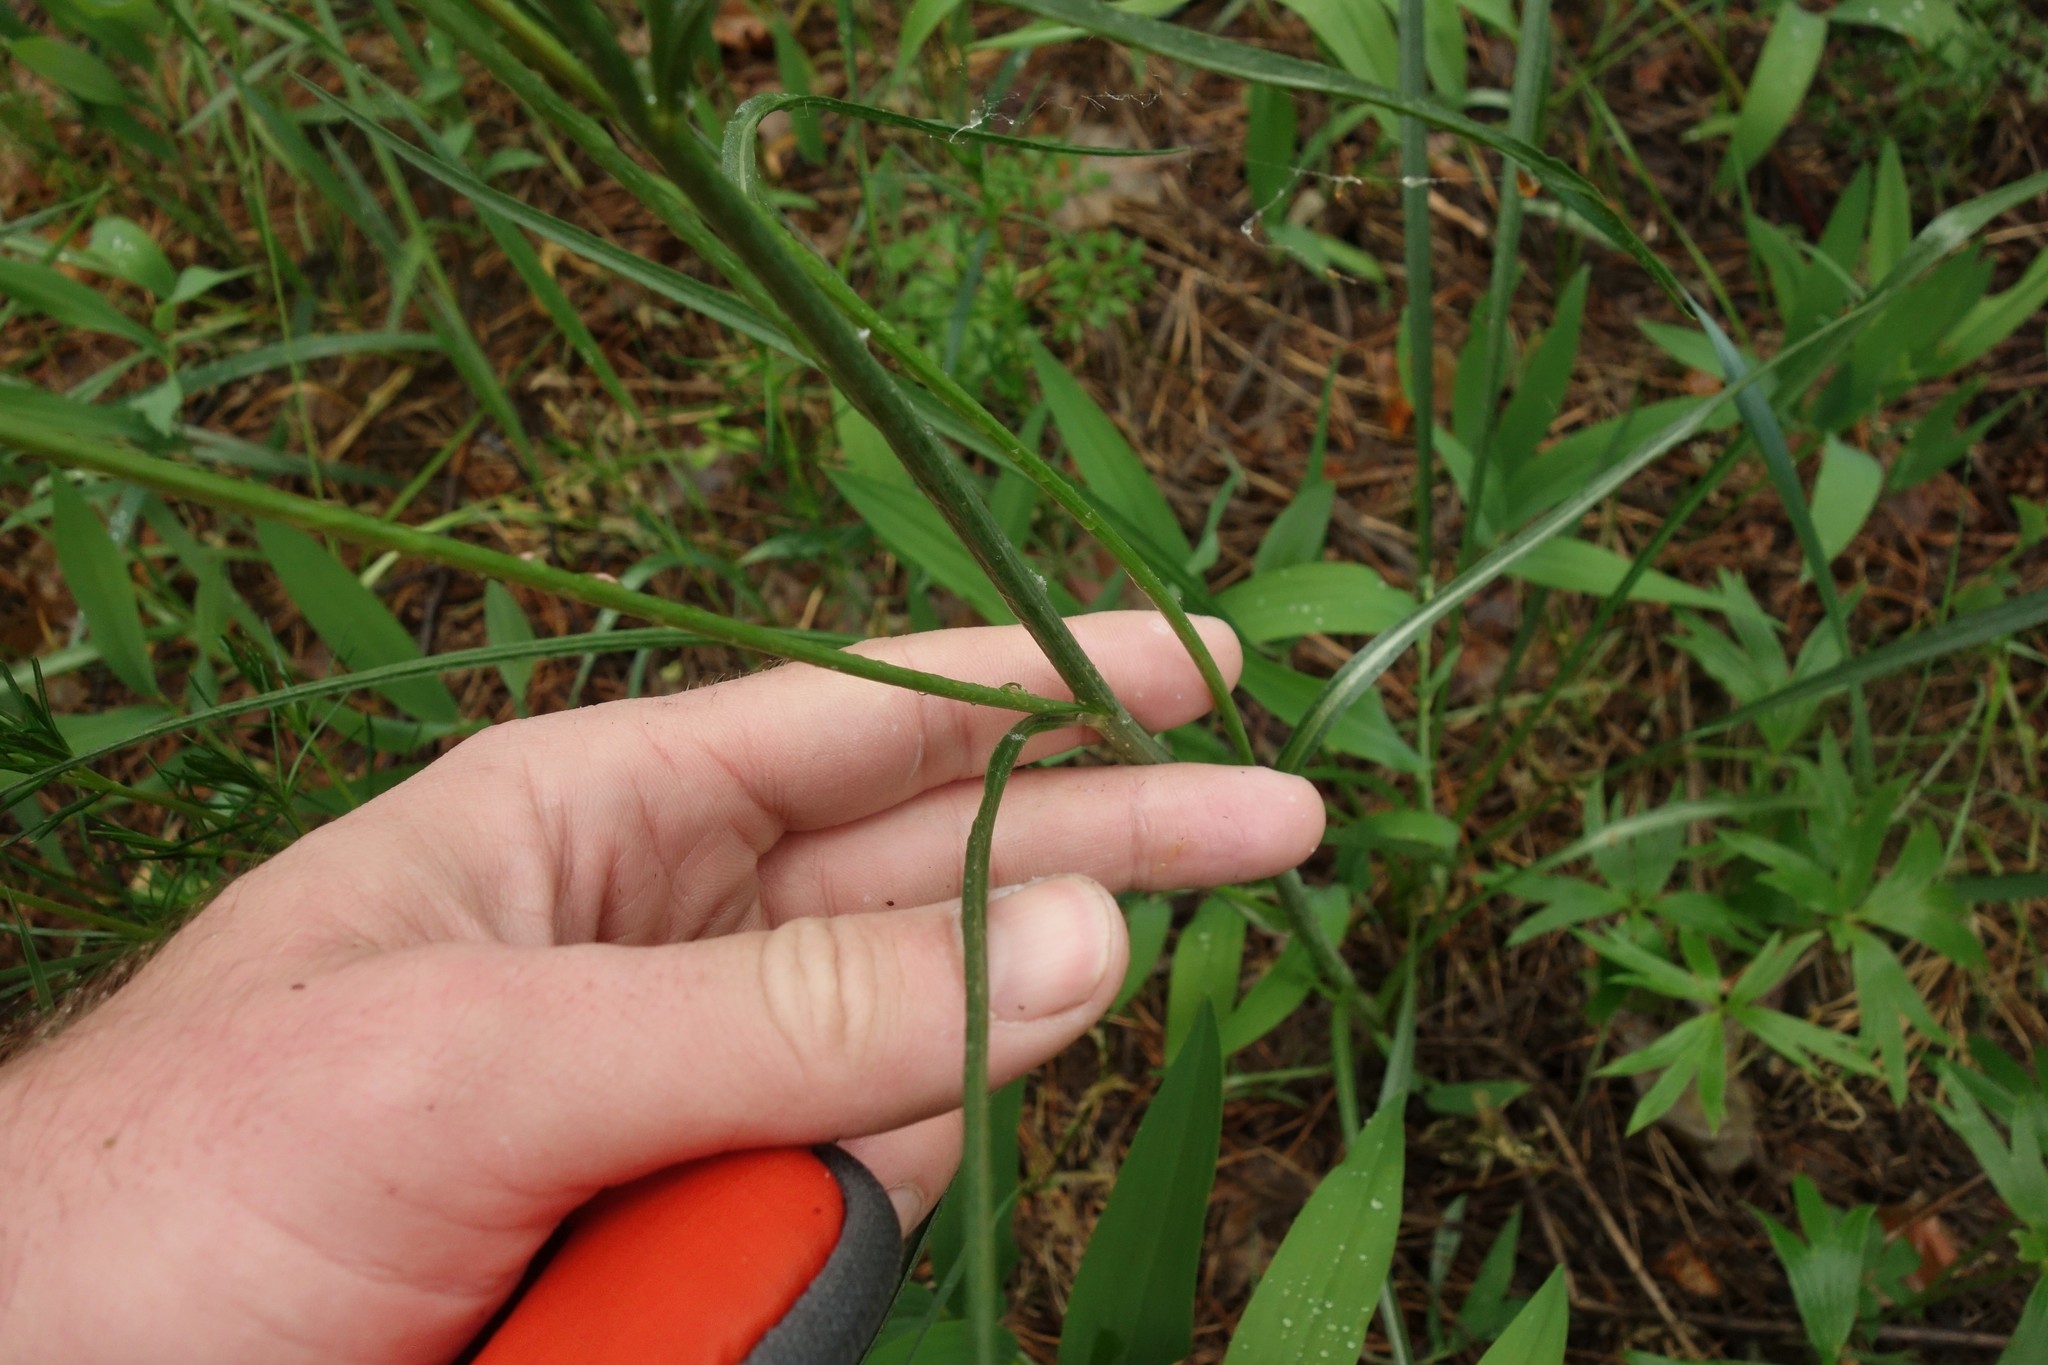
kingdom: Plantae
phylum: Tracheophyta
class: Magnoliopsida
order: Asterales
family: Asteraceae
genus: Scorzonera
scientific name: Scorzonera purpurea
